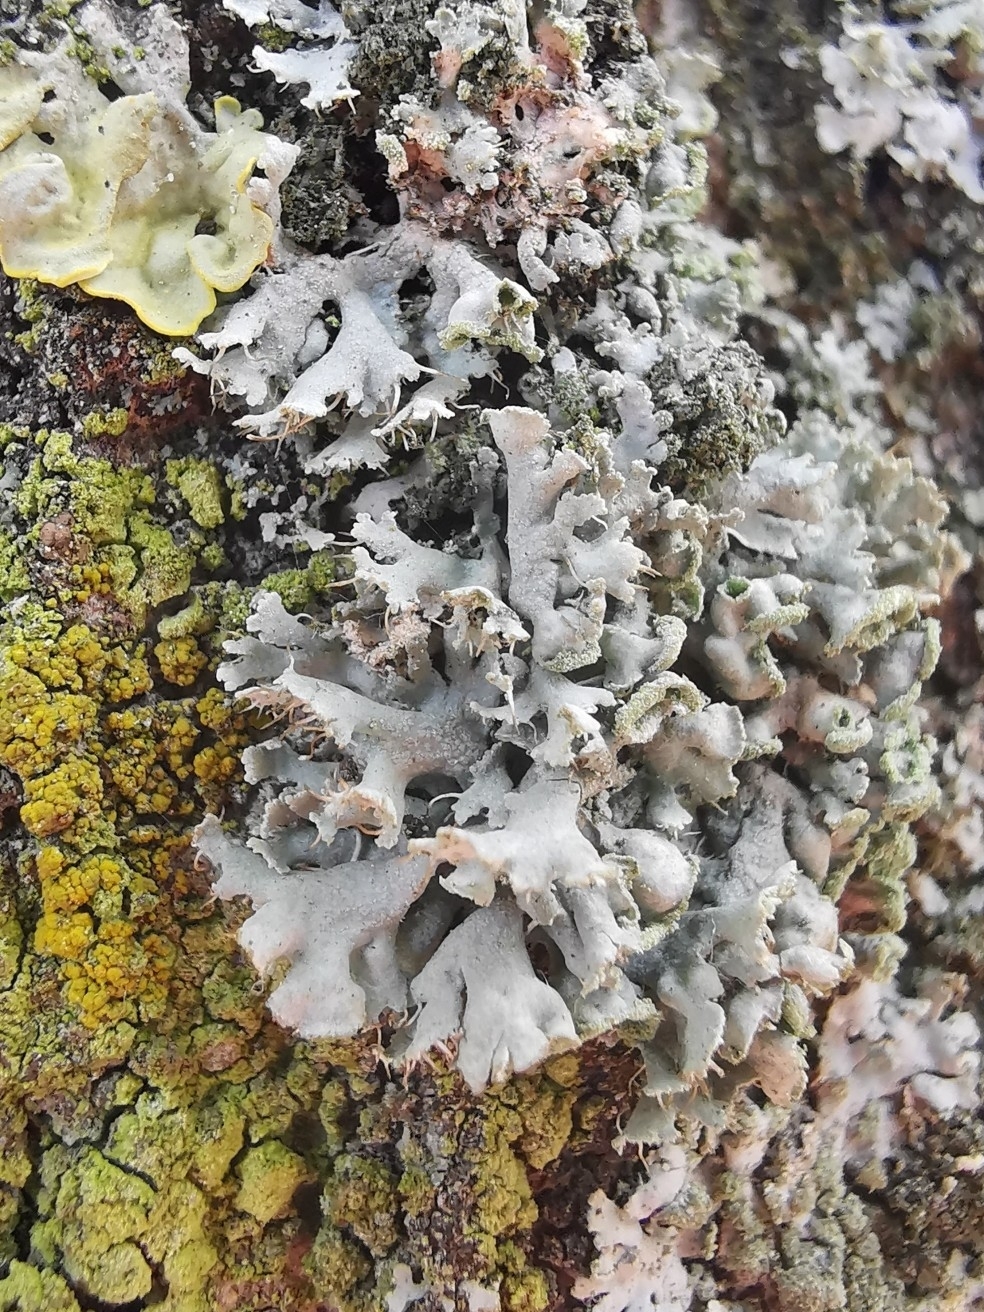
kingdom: Fungi
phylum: Ascomycota
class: Lecanoromycetes
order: Caliciales
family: Physciaceae
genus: Physcia
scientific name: Physcia adscendens
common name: Hooded rosette lichen
